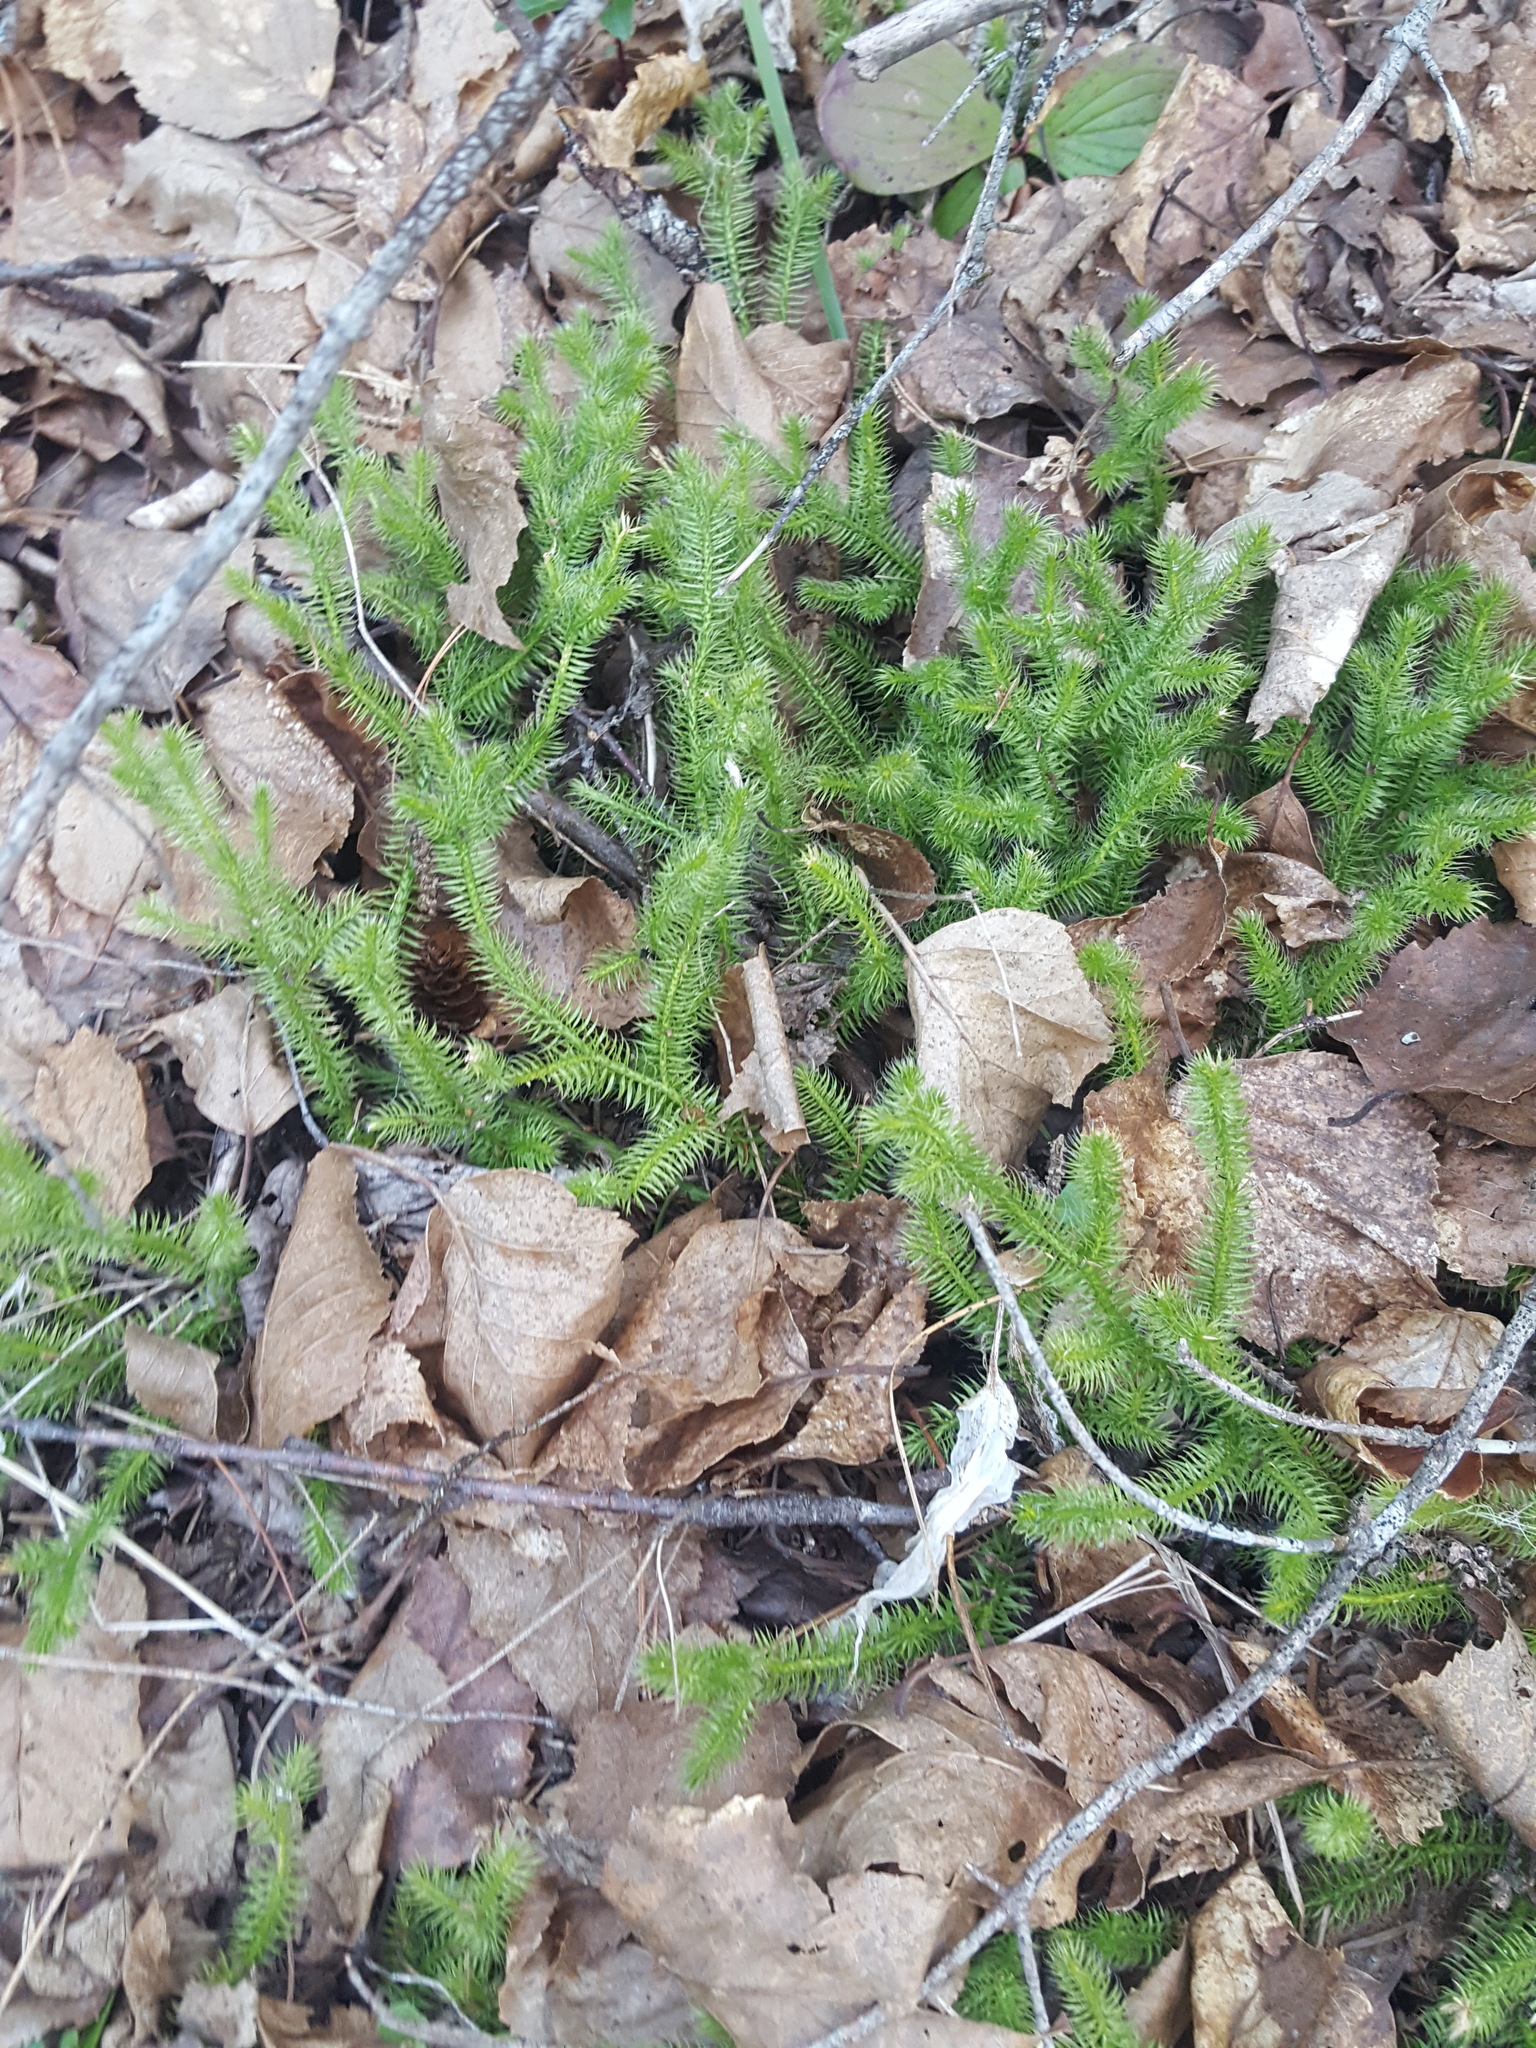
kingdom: Plantae
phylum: Tracheophyta
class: Lycopodiopsida
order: Lycopodiales
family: Lycopodiaceae
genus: Lycopodium
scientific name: Lycopodium clavatum
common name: Stag's-horn clubmoss
